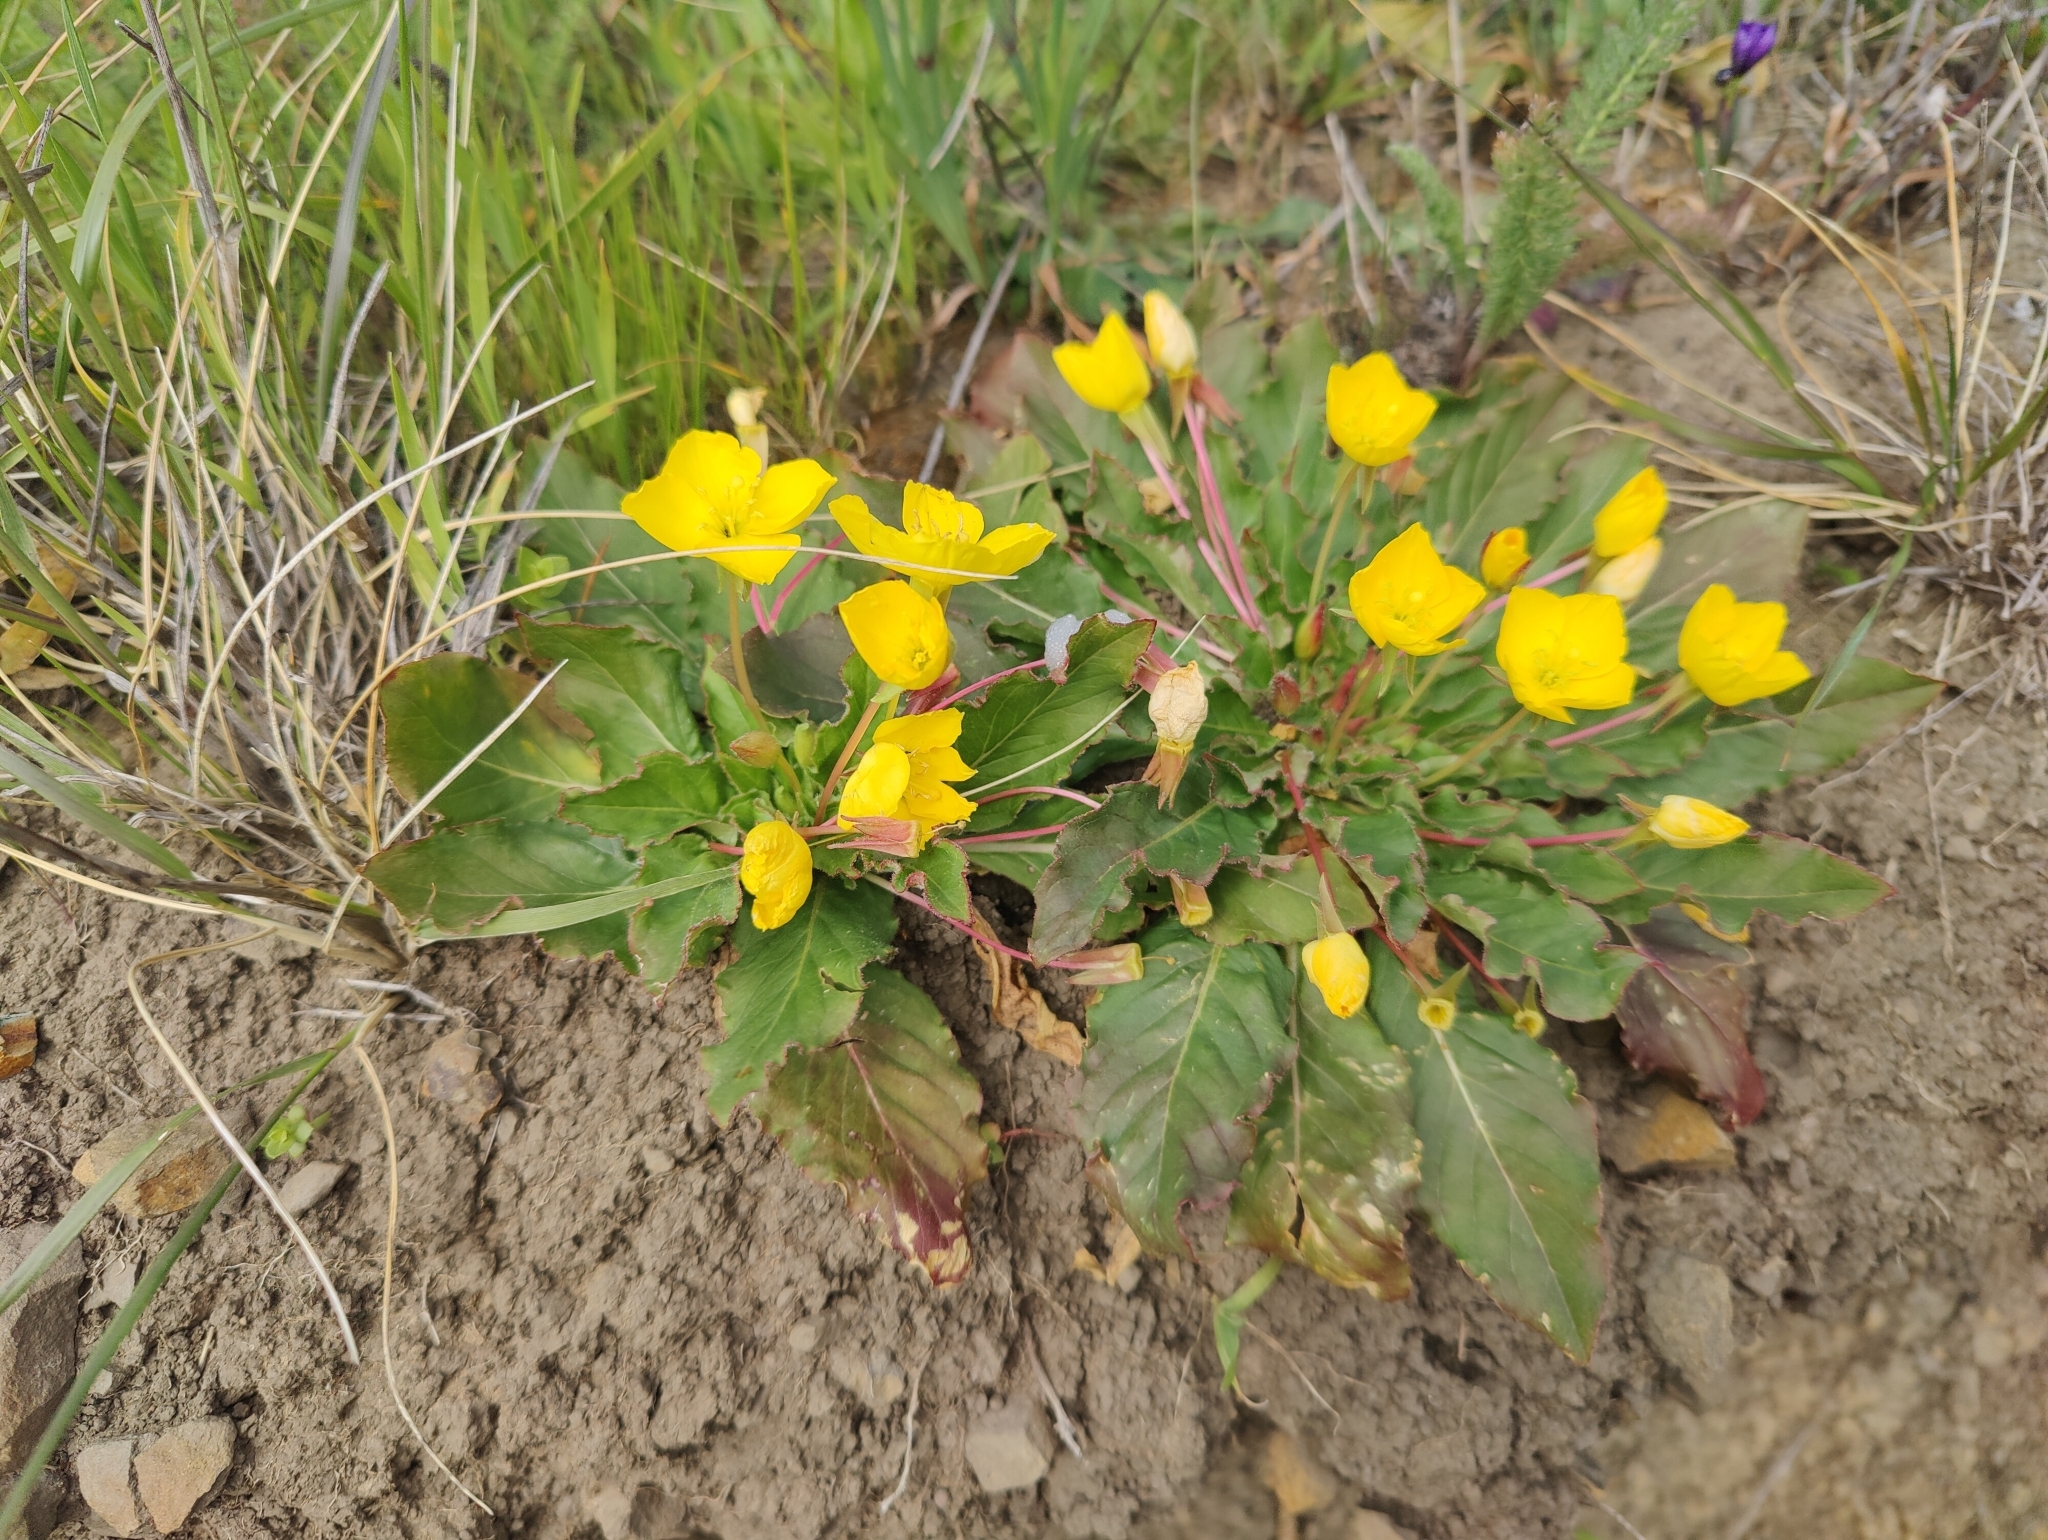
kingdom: Plantae
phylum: Tracheophyta
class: Magnoliopsida
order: Myrtales
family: Onagraceae
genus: Taraxia
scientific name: Taraxia ovata
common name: Goldeneggs
